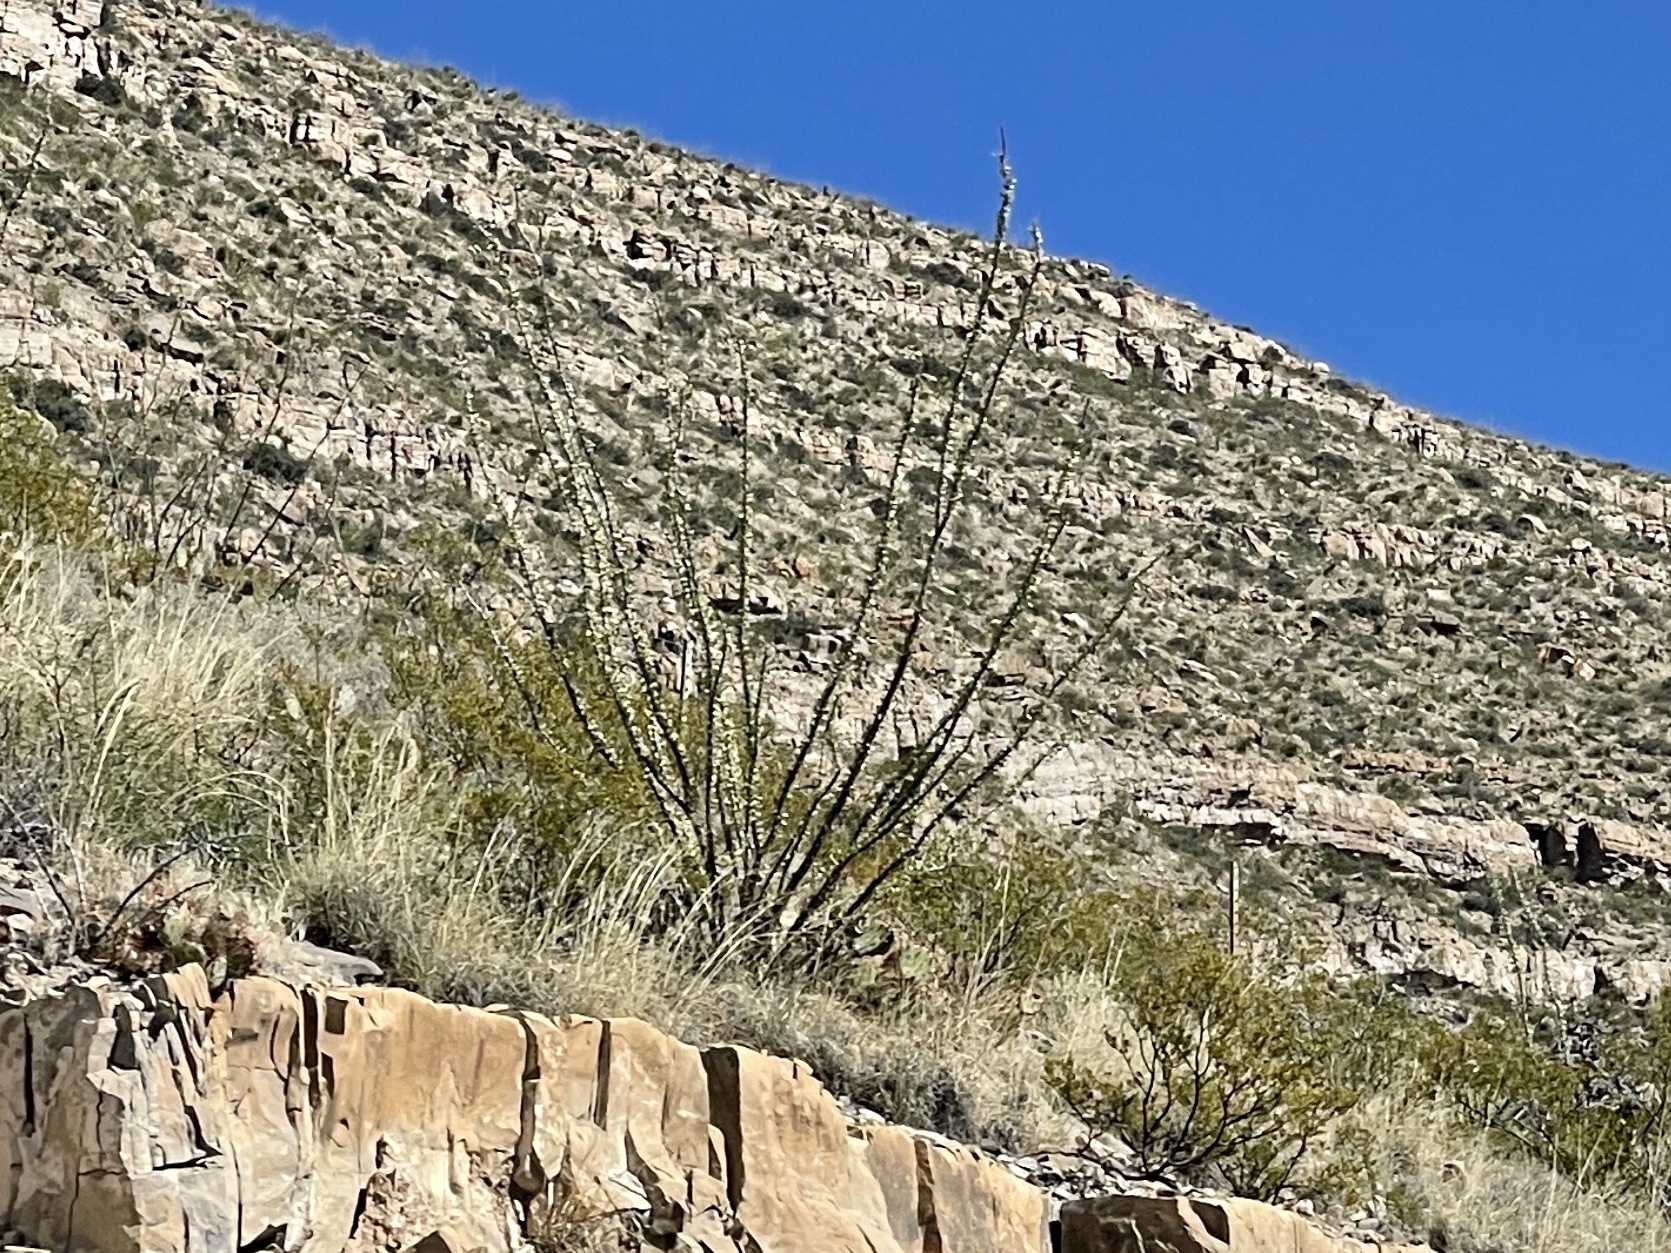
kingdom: Plantae
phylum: Tracheophyta
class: Magnoliopsida
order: Ericales
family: Fouquieriaceae
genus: Fouquieria
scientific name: Fouquieria splendens
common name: Vine-cactus
